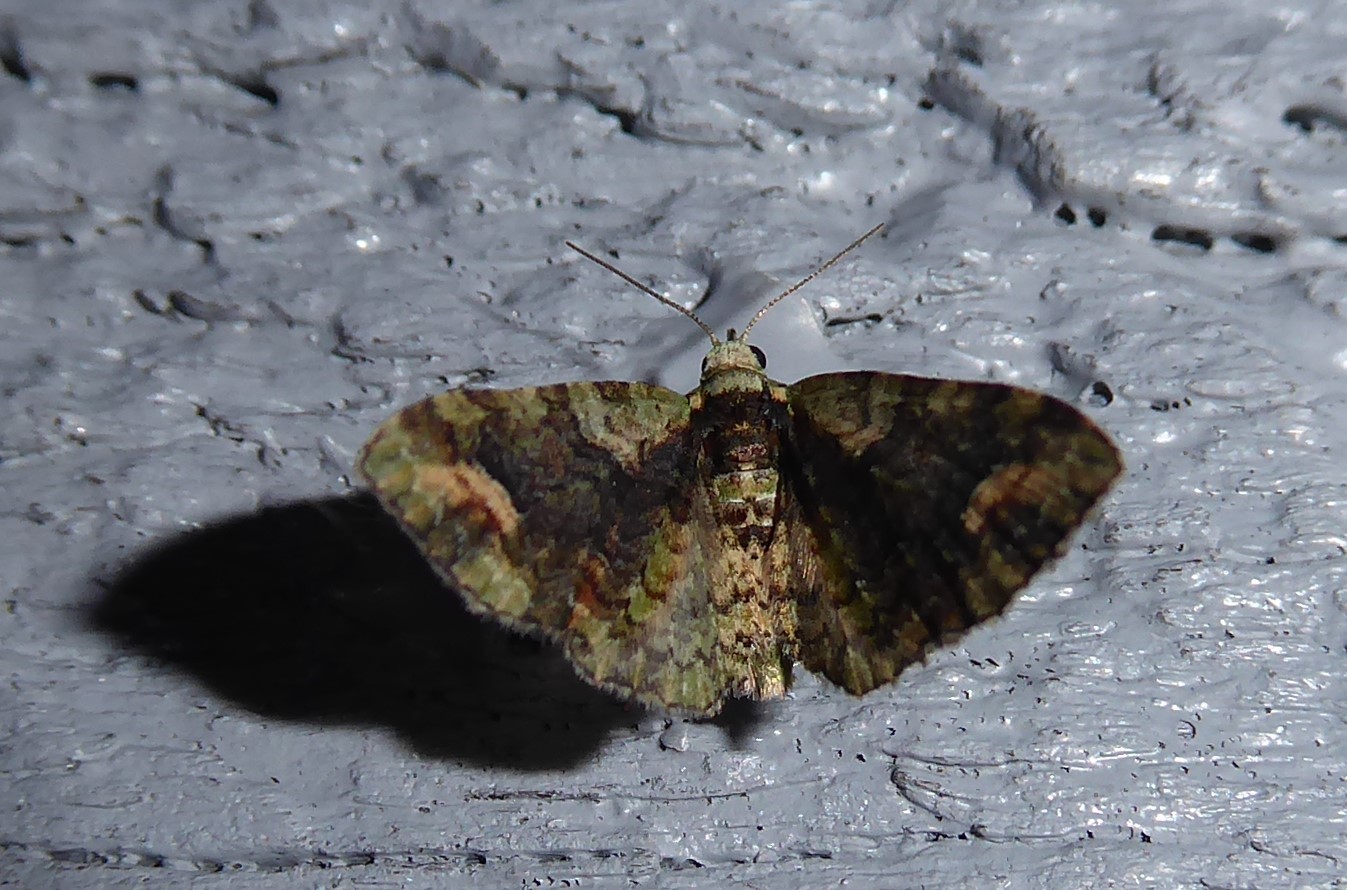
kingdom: Animalia
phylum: Arthropoda
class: Insecta
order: Lepidoptera
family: Geometridae
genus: Idaea
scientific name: Idaea mutanda
